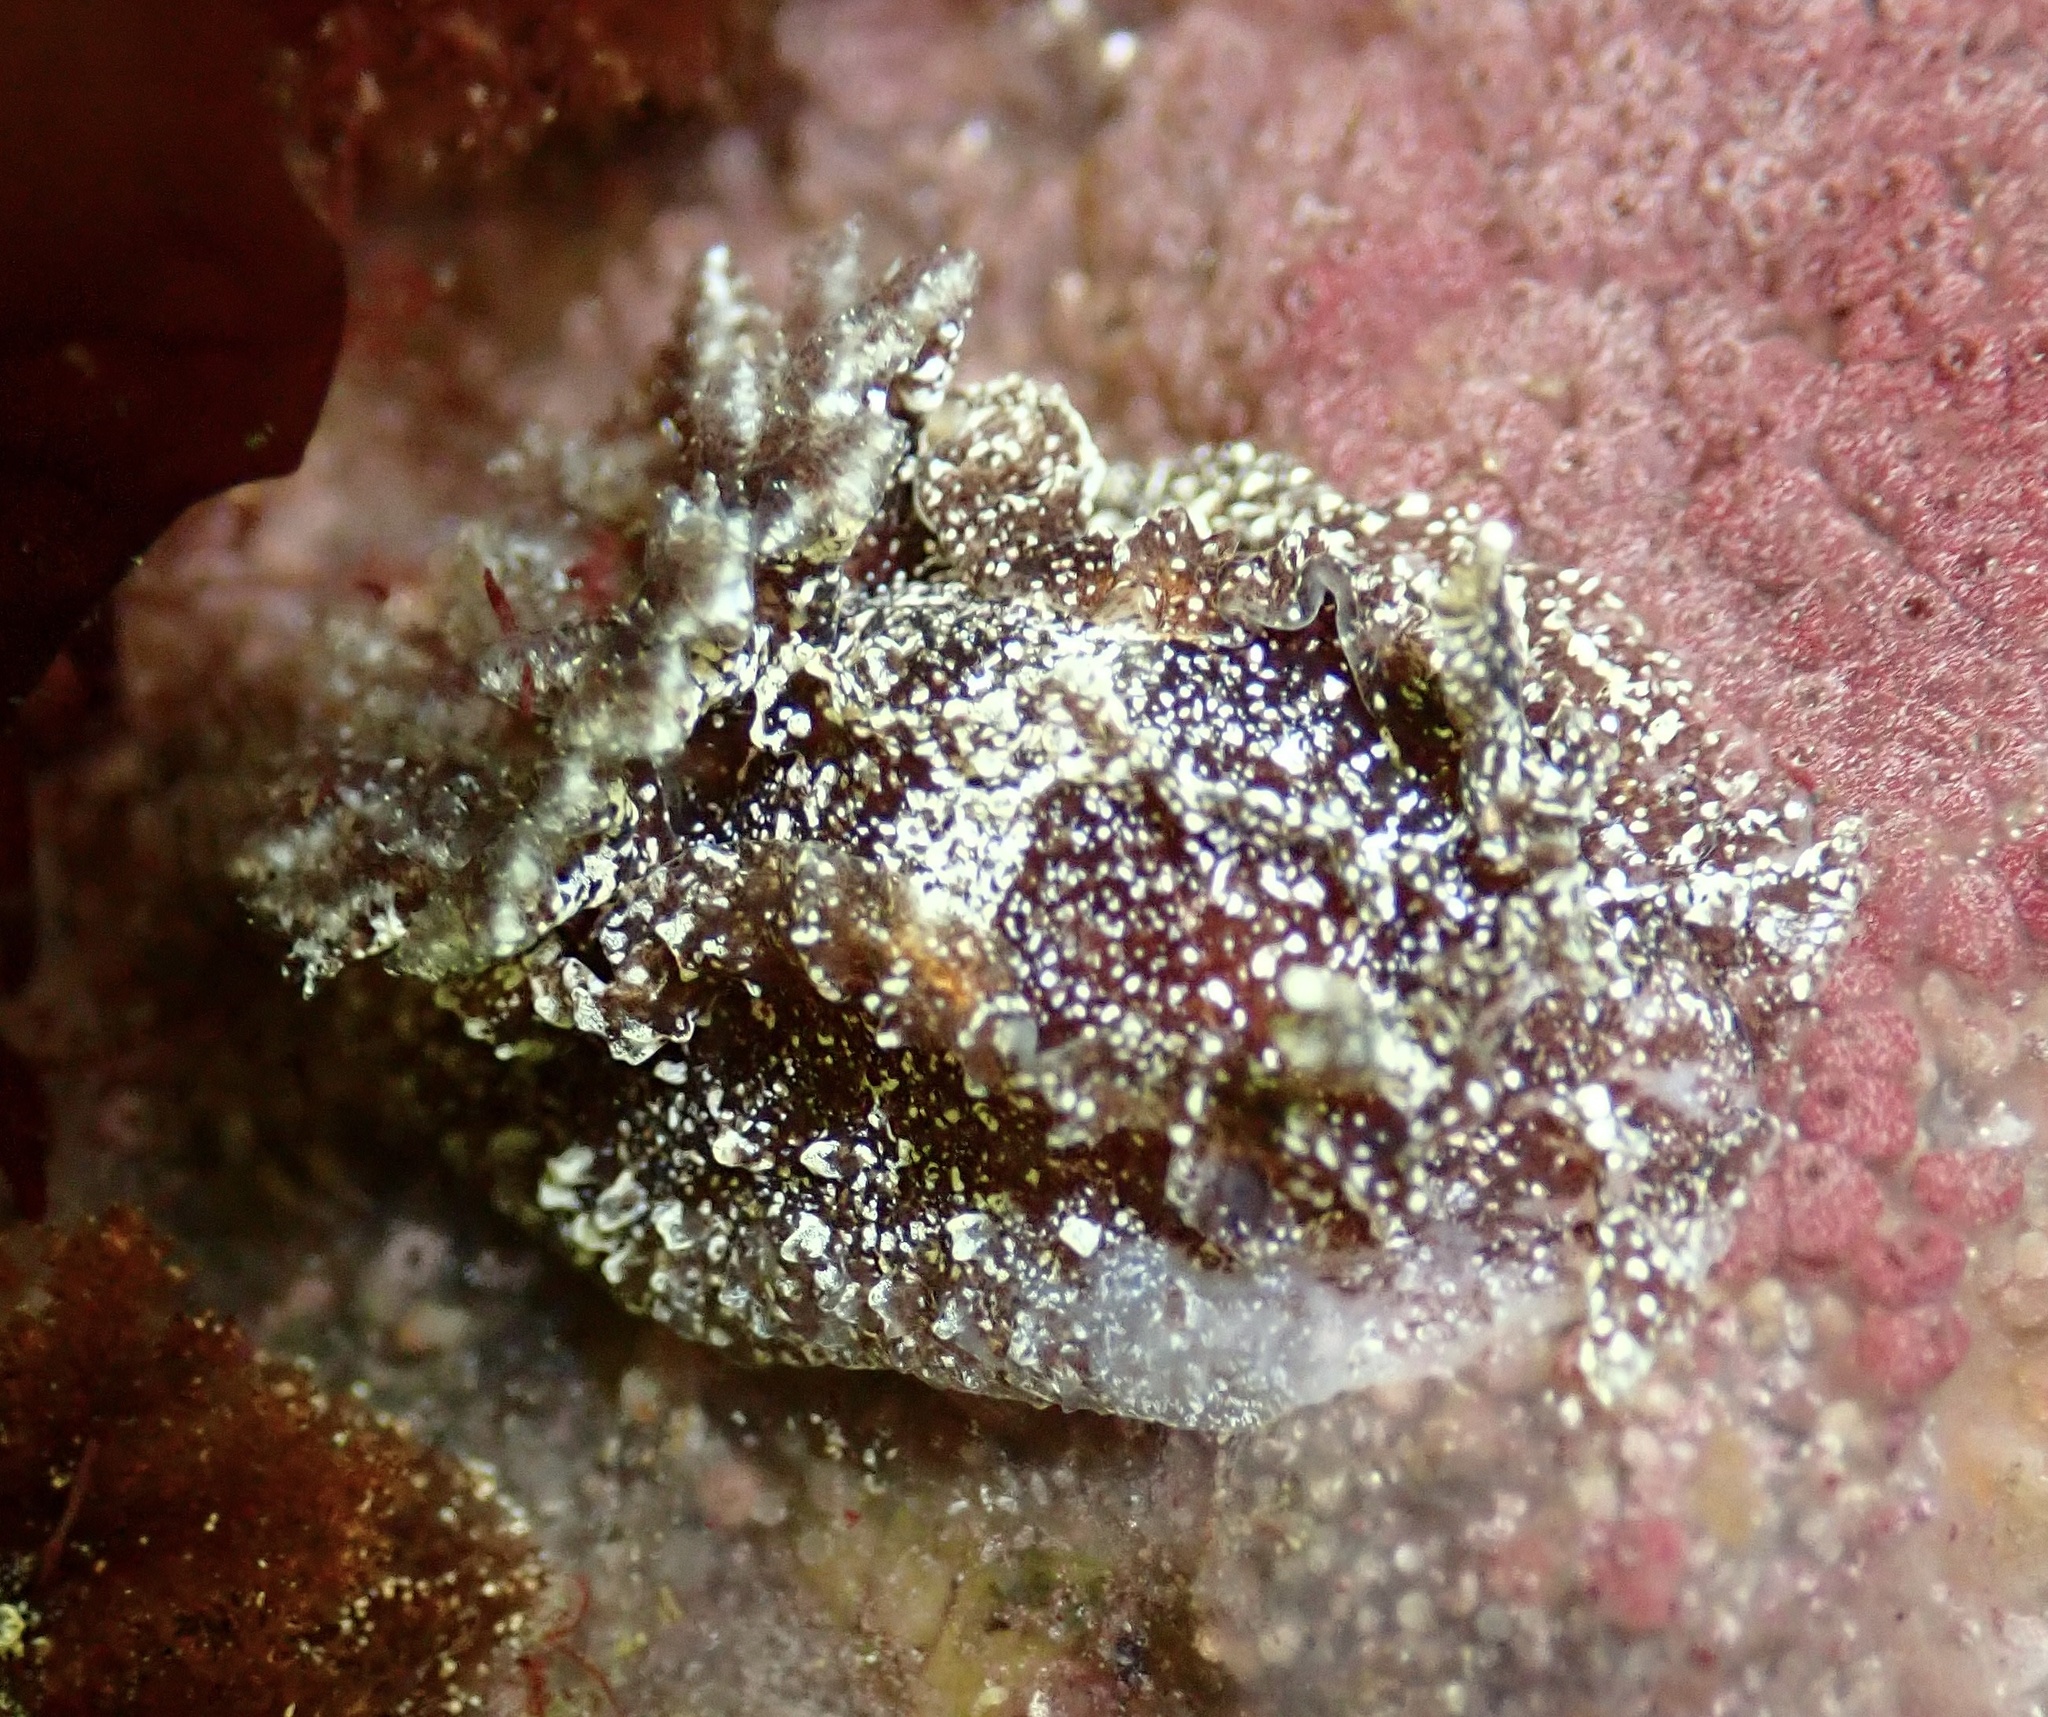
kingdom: Animalia
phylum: Mollusca
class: Gastropoda
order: Nudibranchia
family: Goniodorididae
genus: Pelagella
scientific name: Pelagella castanea
